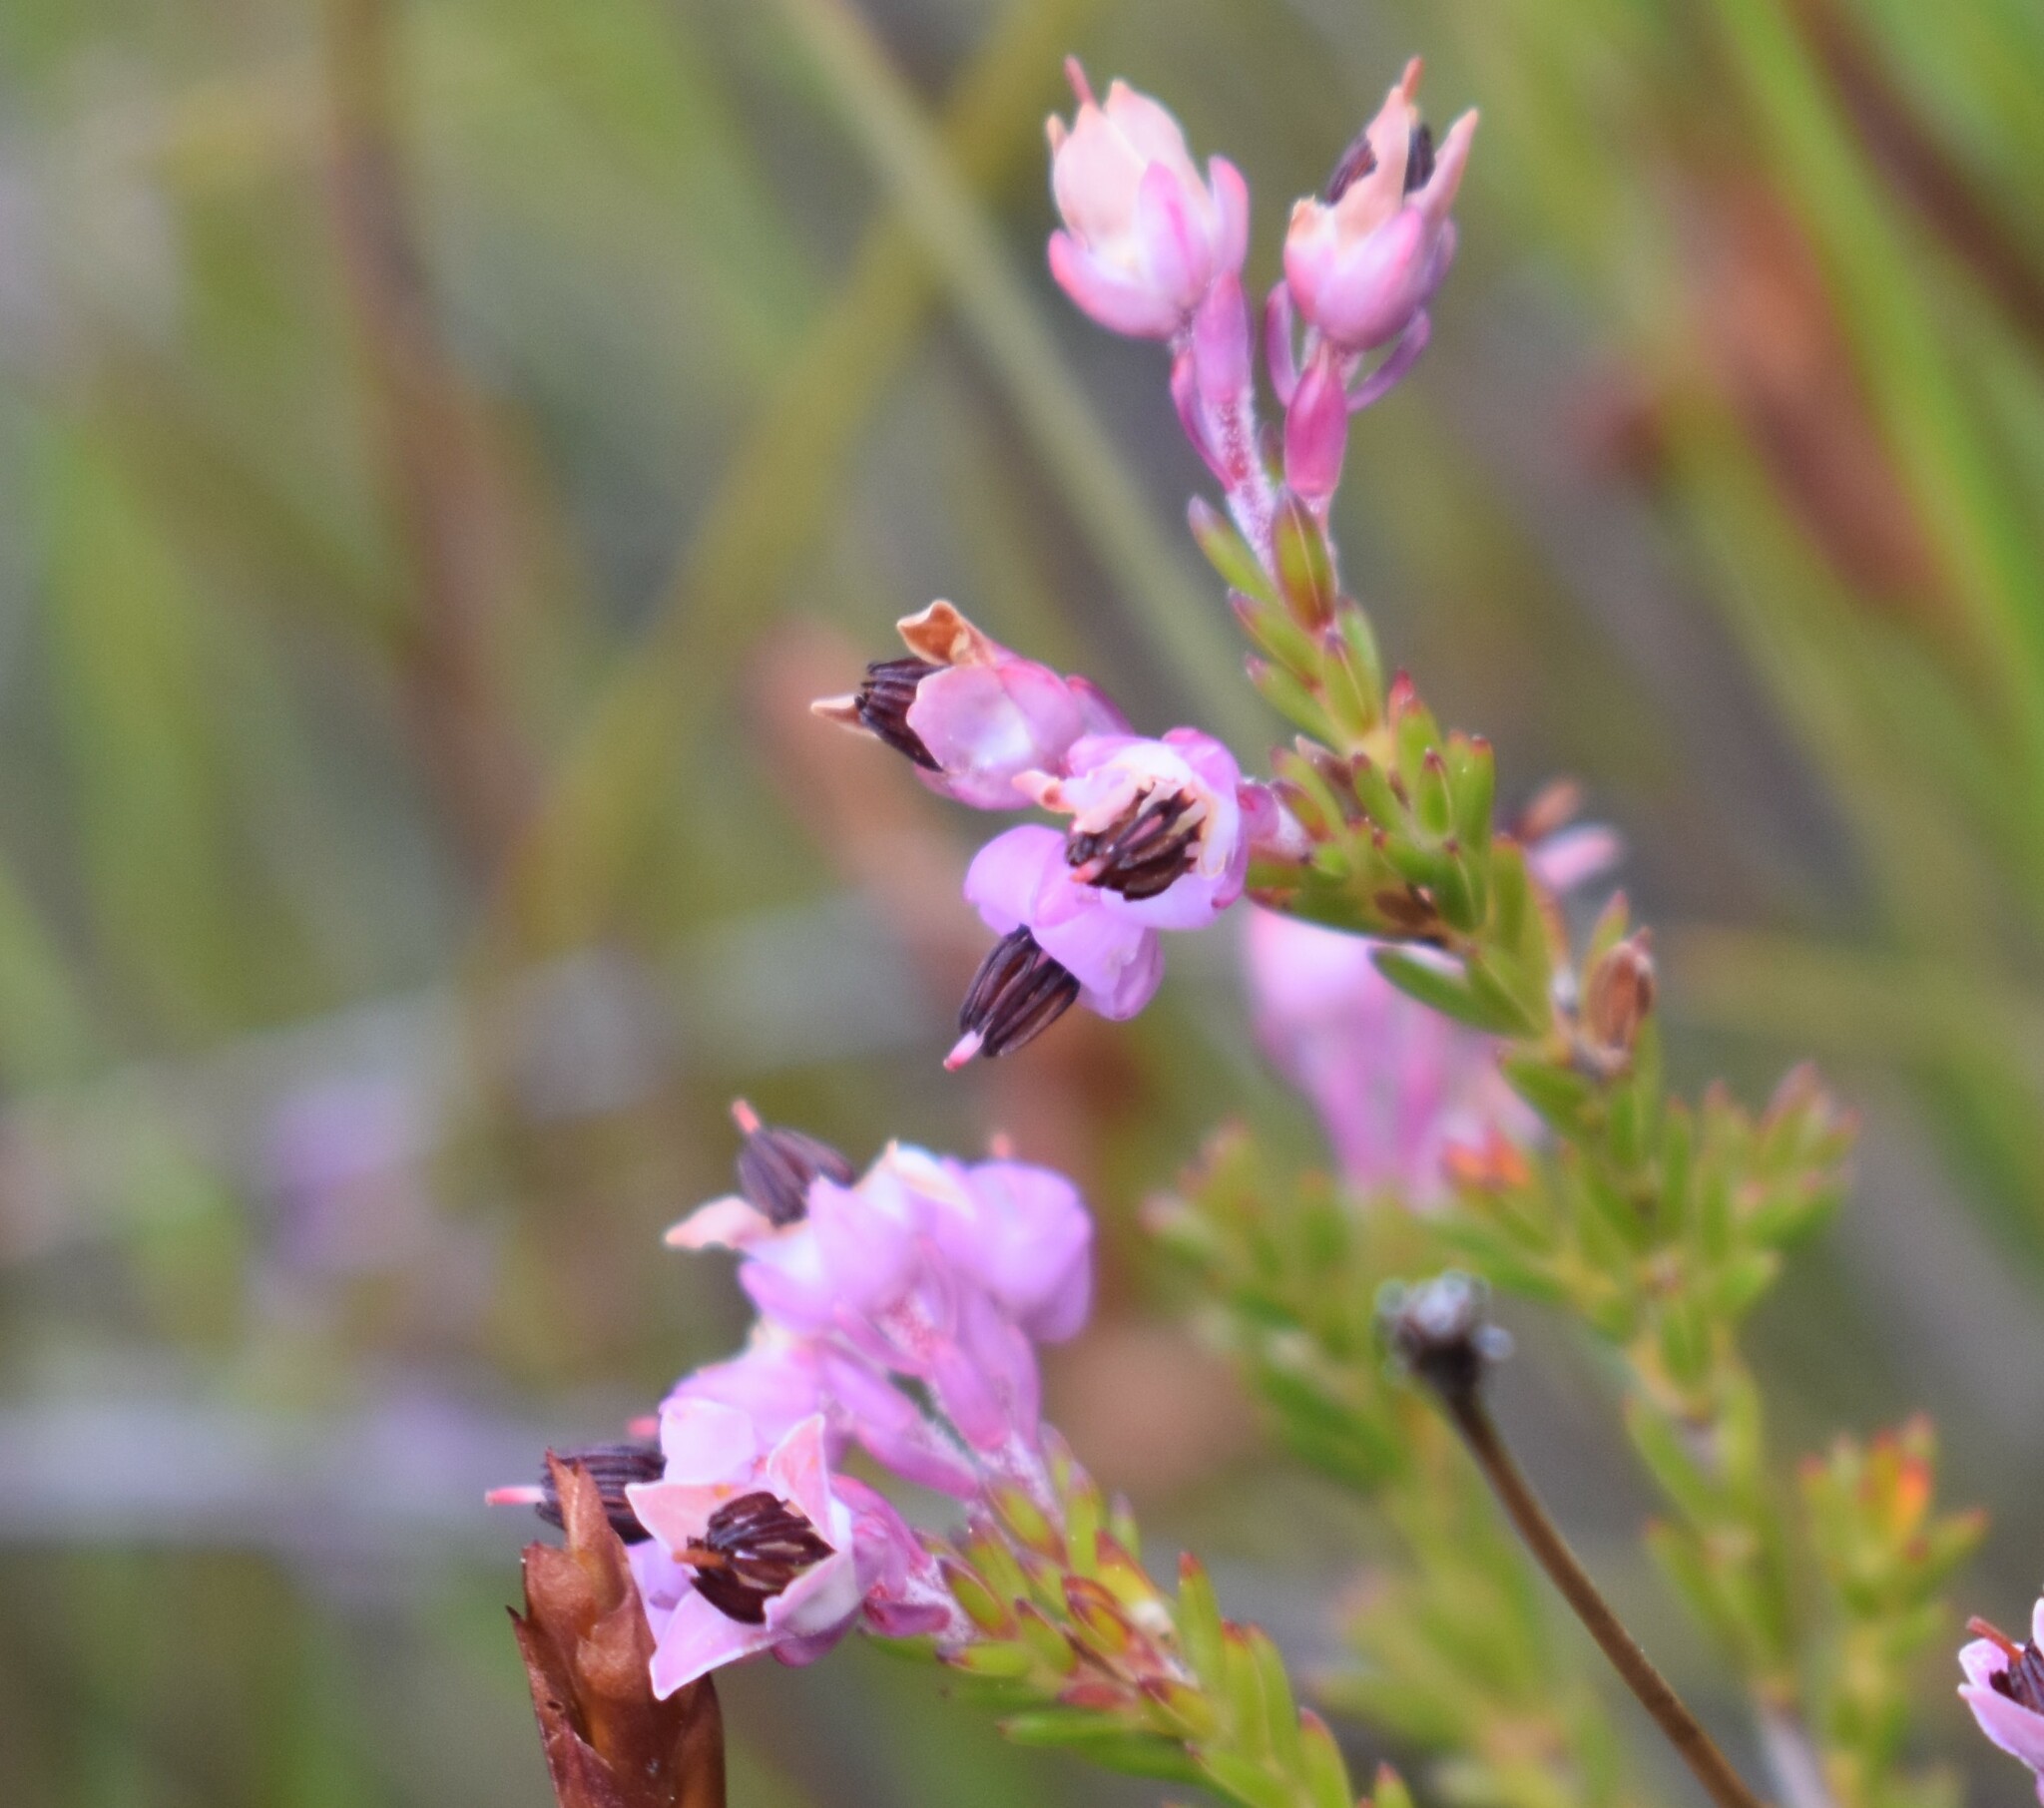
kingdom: Plantae
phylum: Tracheophyta
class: Magnoliopsida
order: Ericales
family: Ericaceae
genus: Erica
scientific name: Erica calycina
